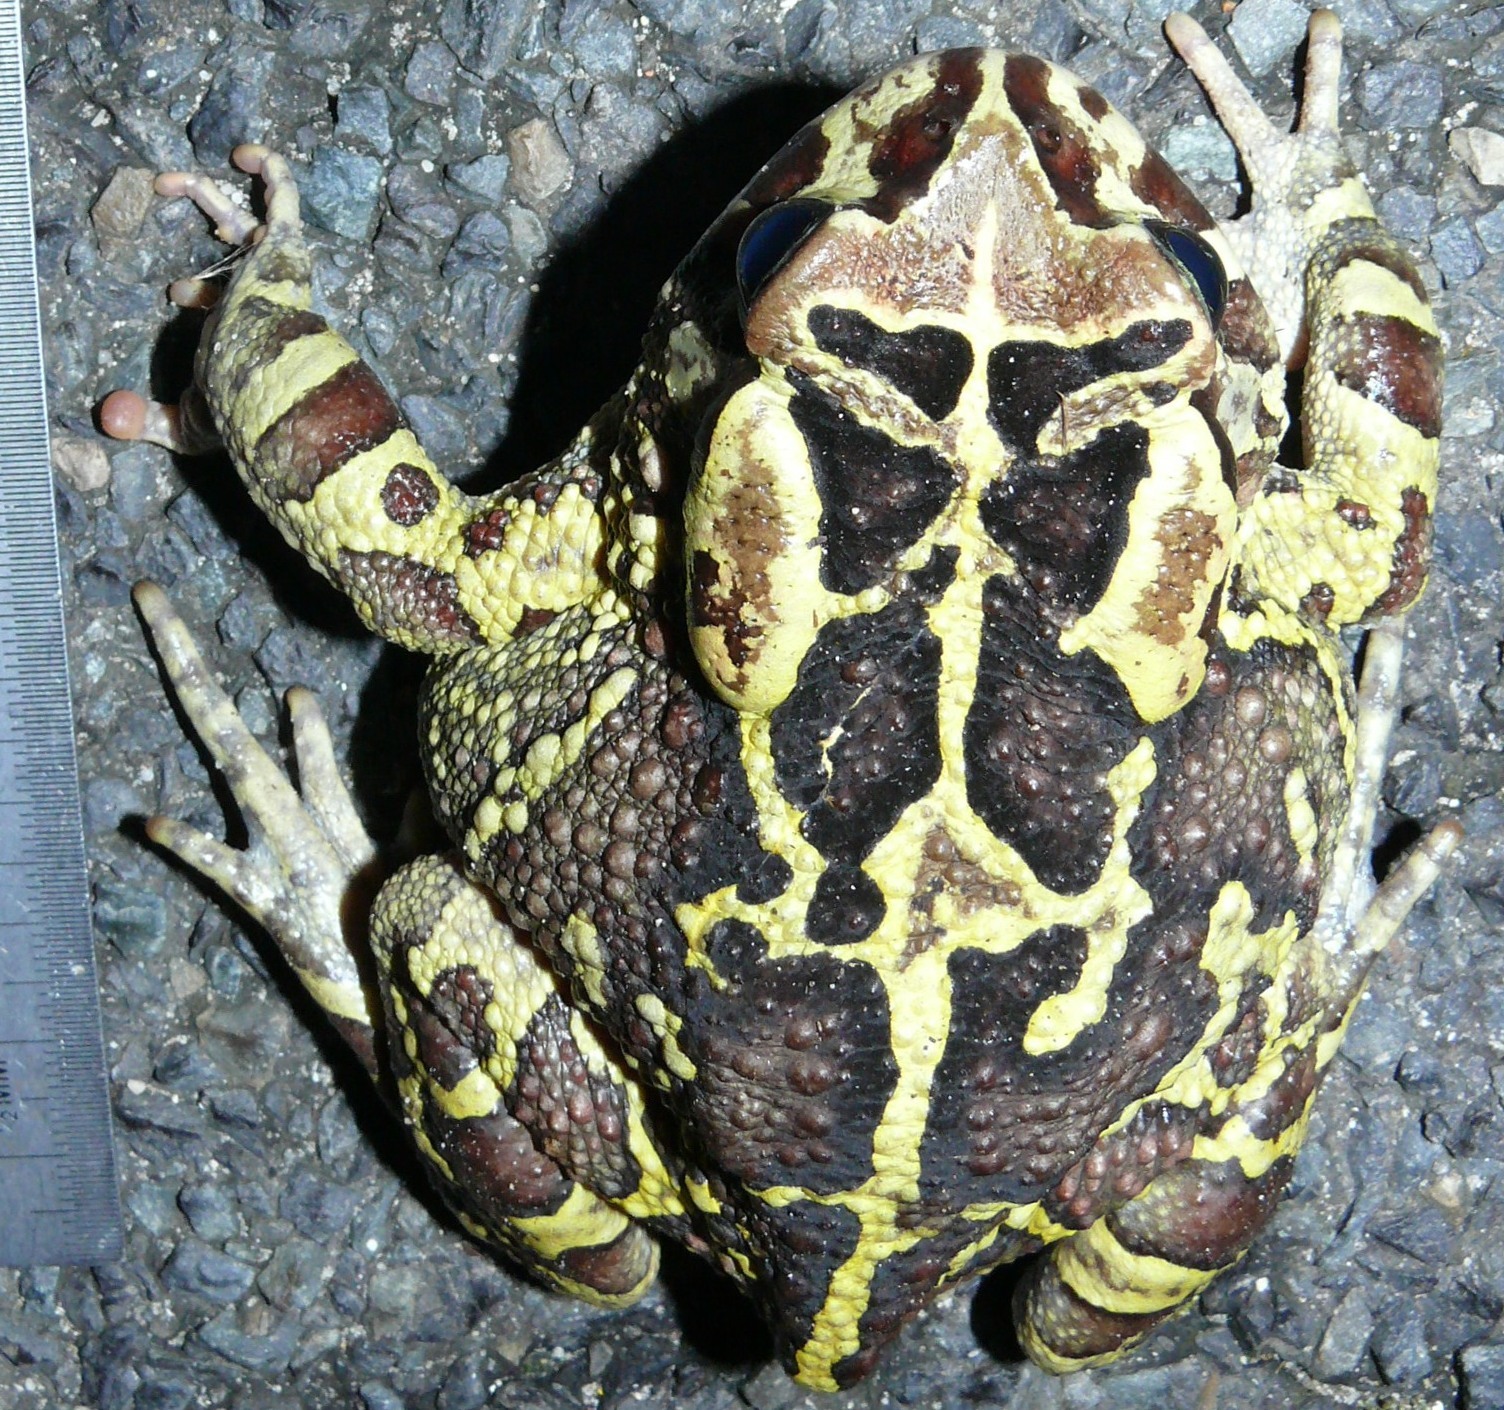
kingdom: Animalia
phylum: Chordata
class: Amphibia
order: Anura
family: Bufonidae
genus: Sclerophrys
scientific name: Sclerophrys pantherina
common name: Panther toad
